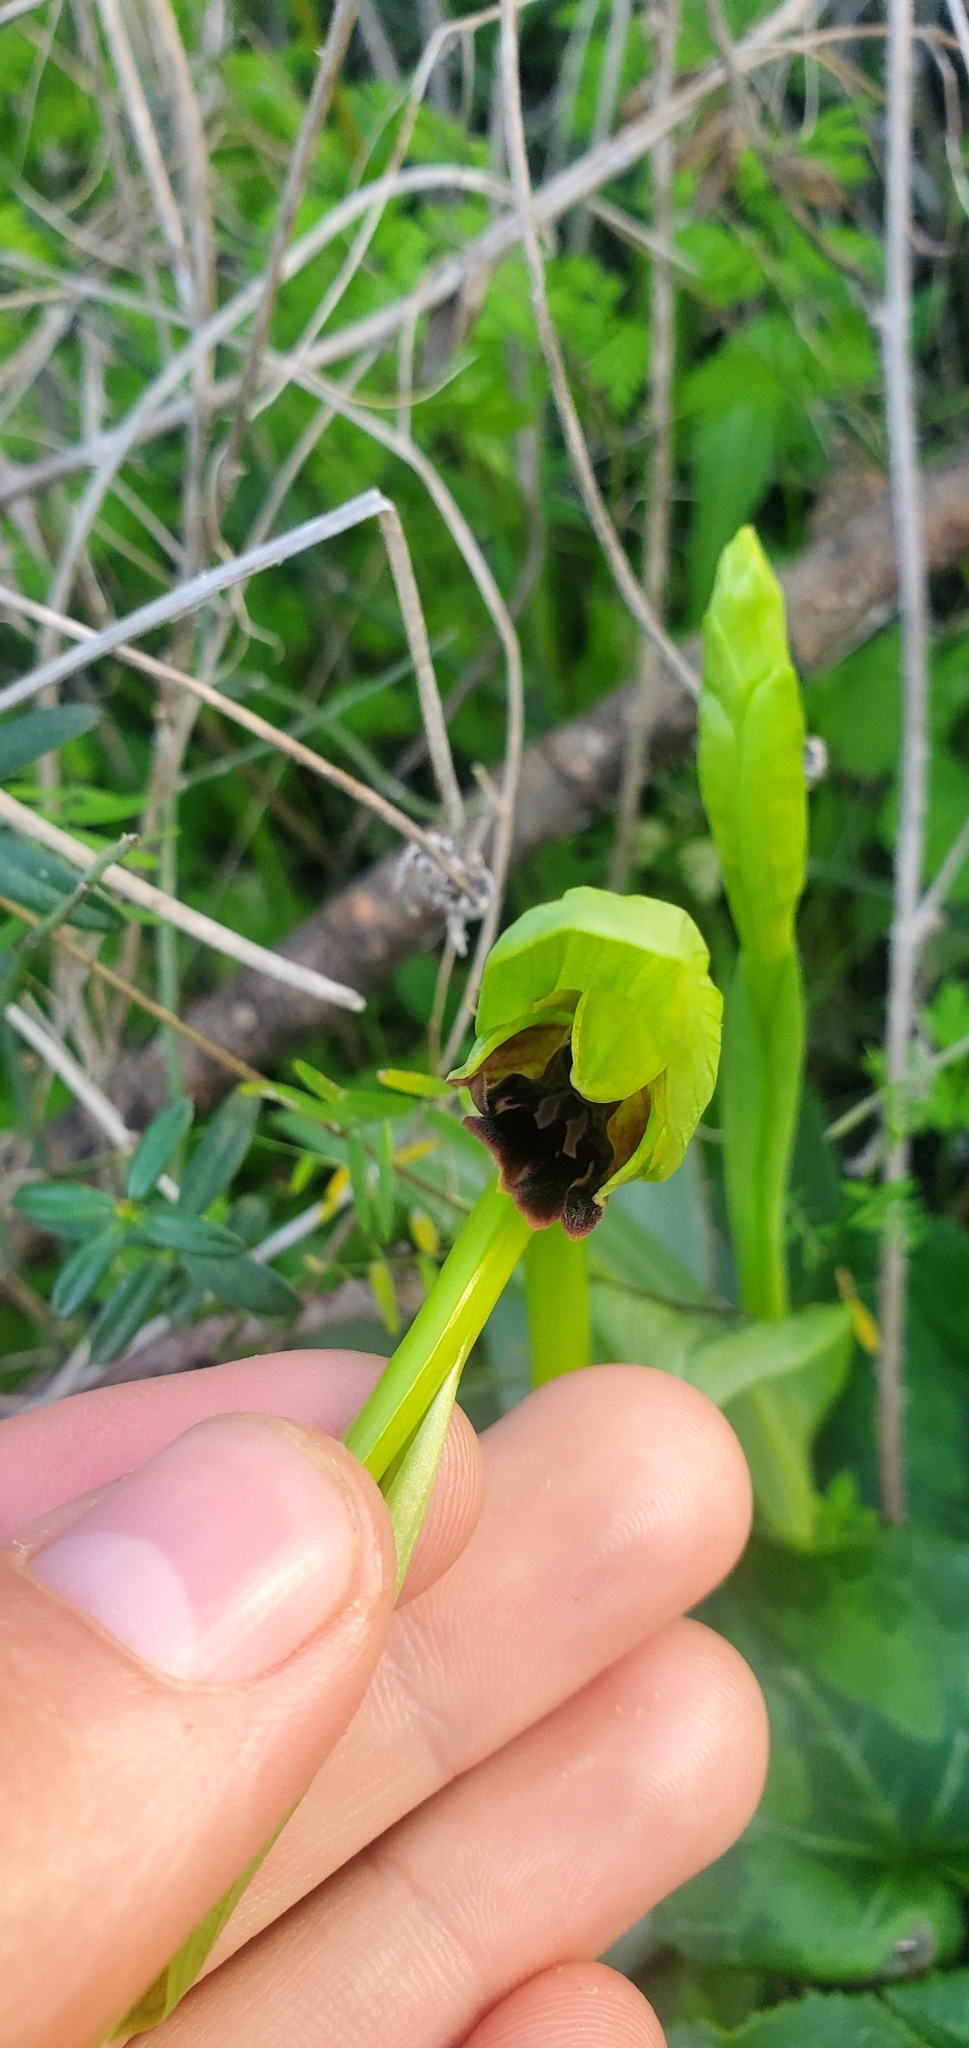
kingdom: Plantae
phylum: Tracheophyta
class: Liliopsida
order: Asparagales
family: Orchidaceae
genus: Ophrys
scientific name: Ophrys sphegodes
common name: Early spider-orchid
